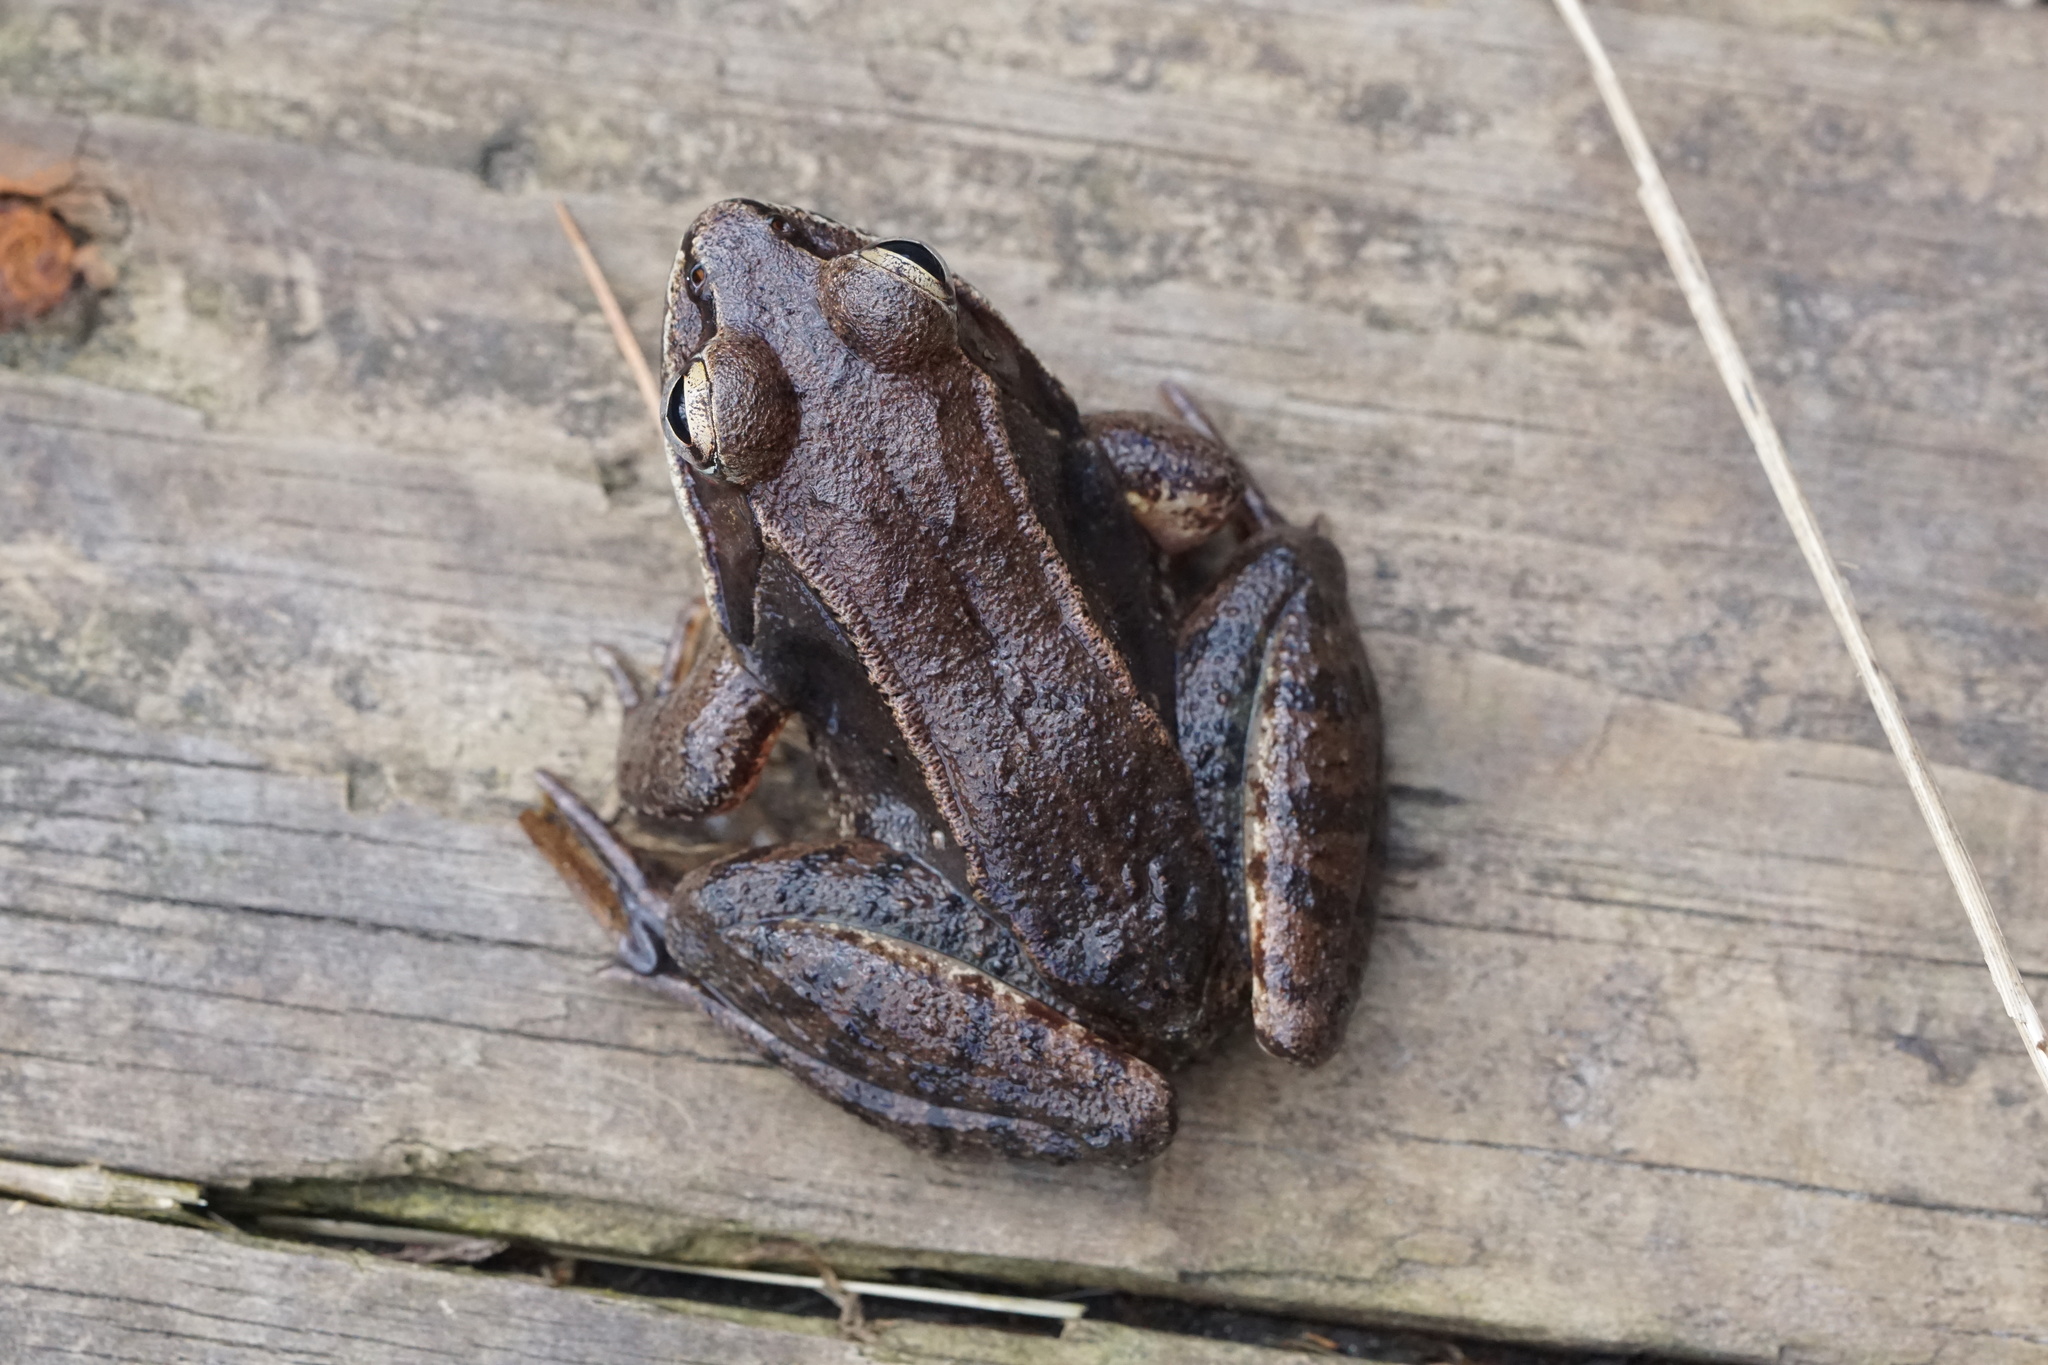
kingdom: Animalia
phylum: Chordata
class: Amphibia
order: Anura
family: Ranidae
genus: Lithobates
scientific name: Lithobates sylvaticus
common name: Wood frog
